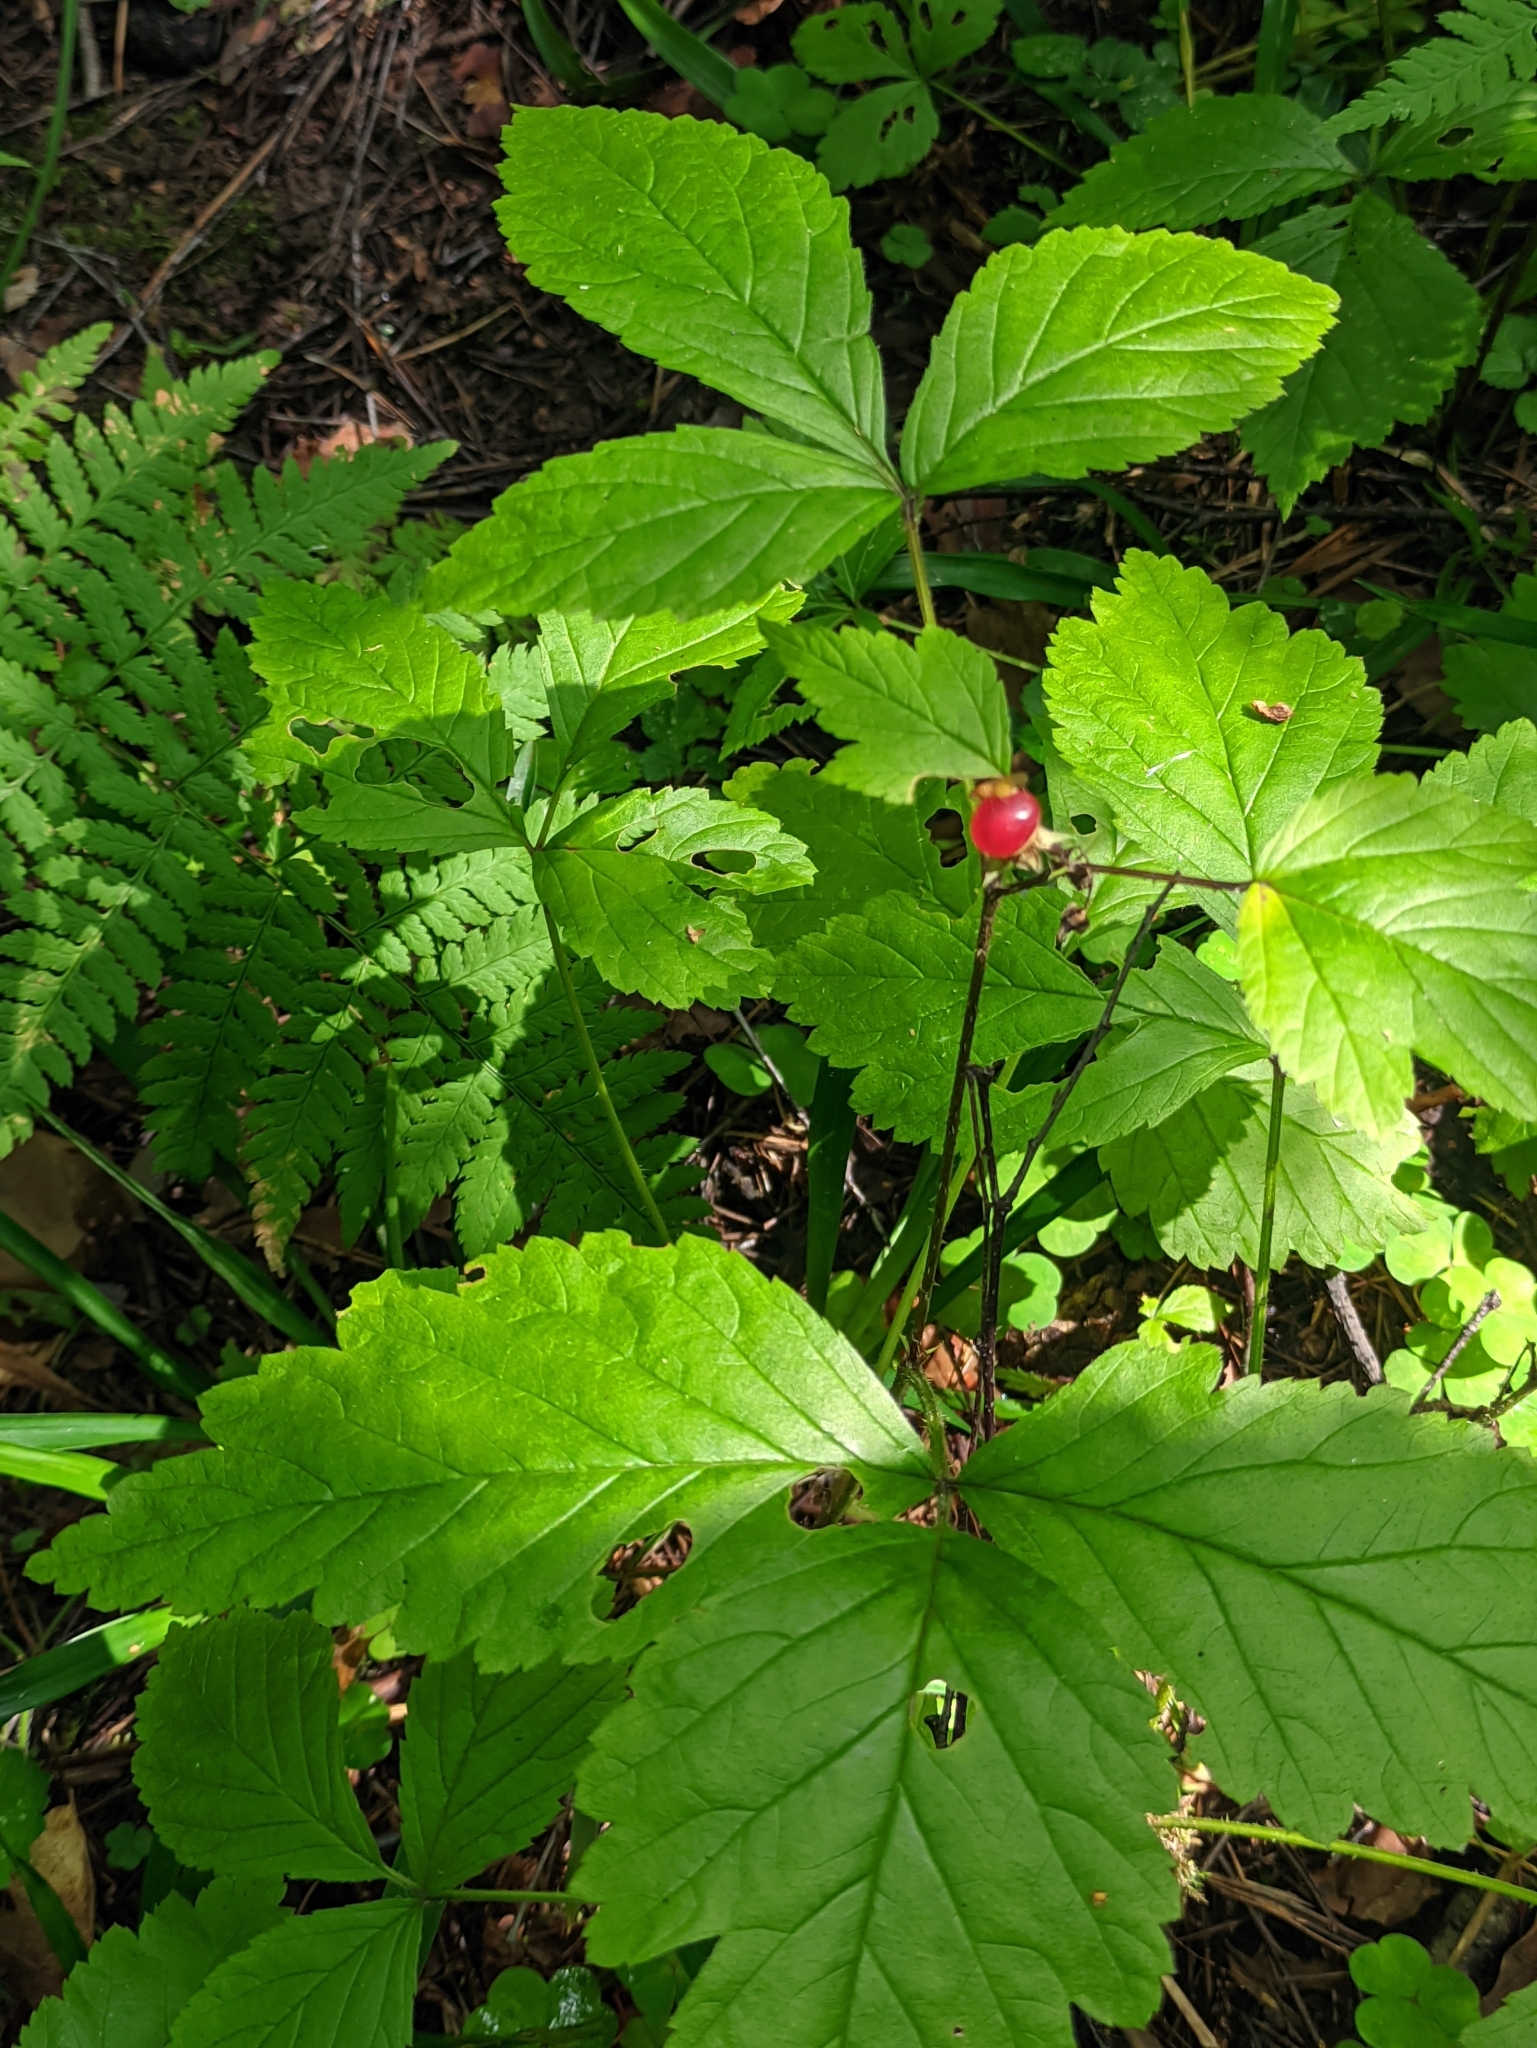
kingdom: Plantae
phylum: Tracheophyta
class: Magnoliopsida
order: Rosales
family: Rosaceae
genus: Rubus
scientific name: Rubus saxatilis
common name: Stone bramble
